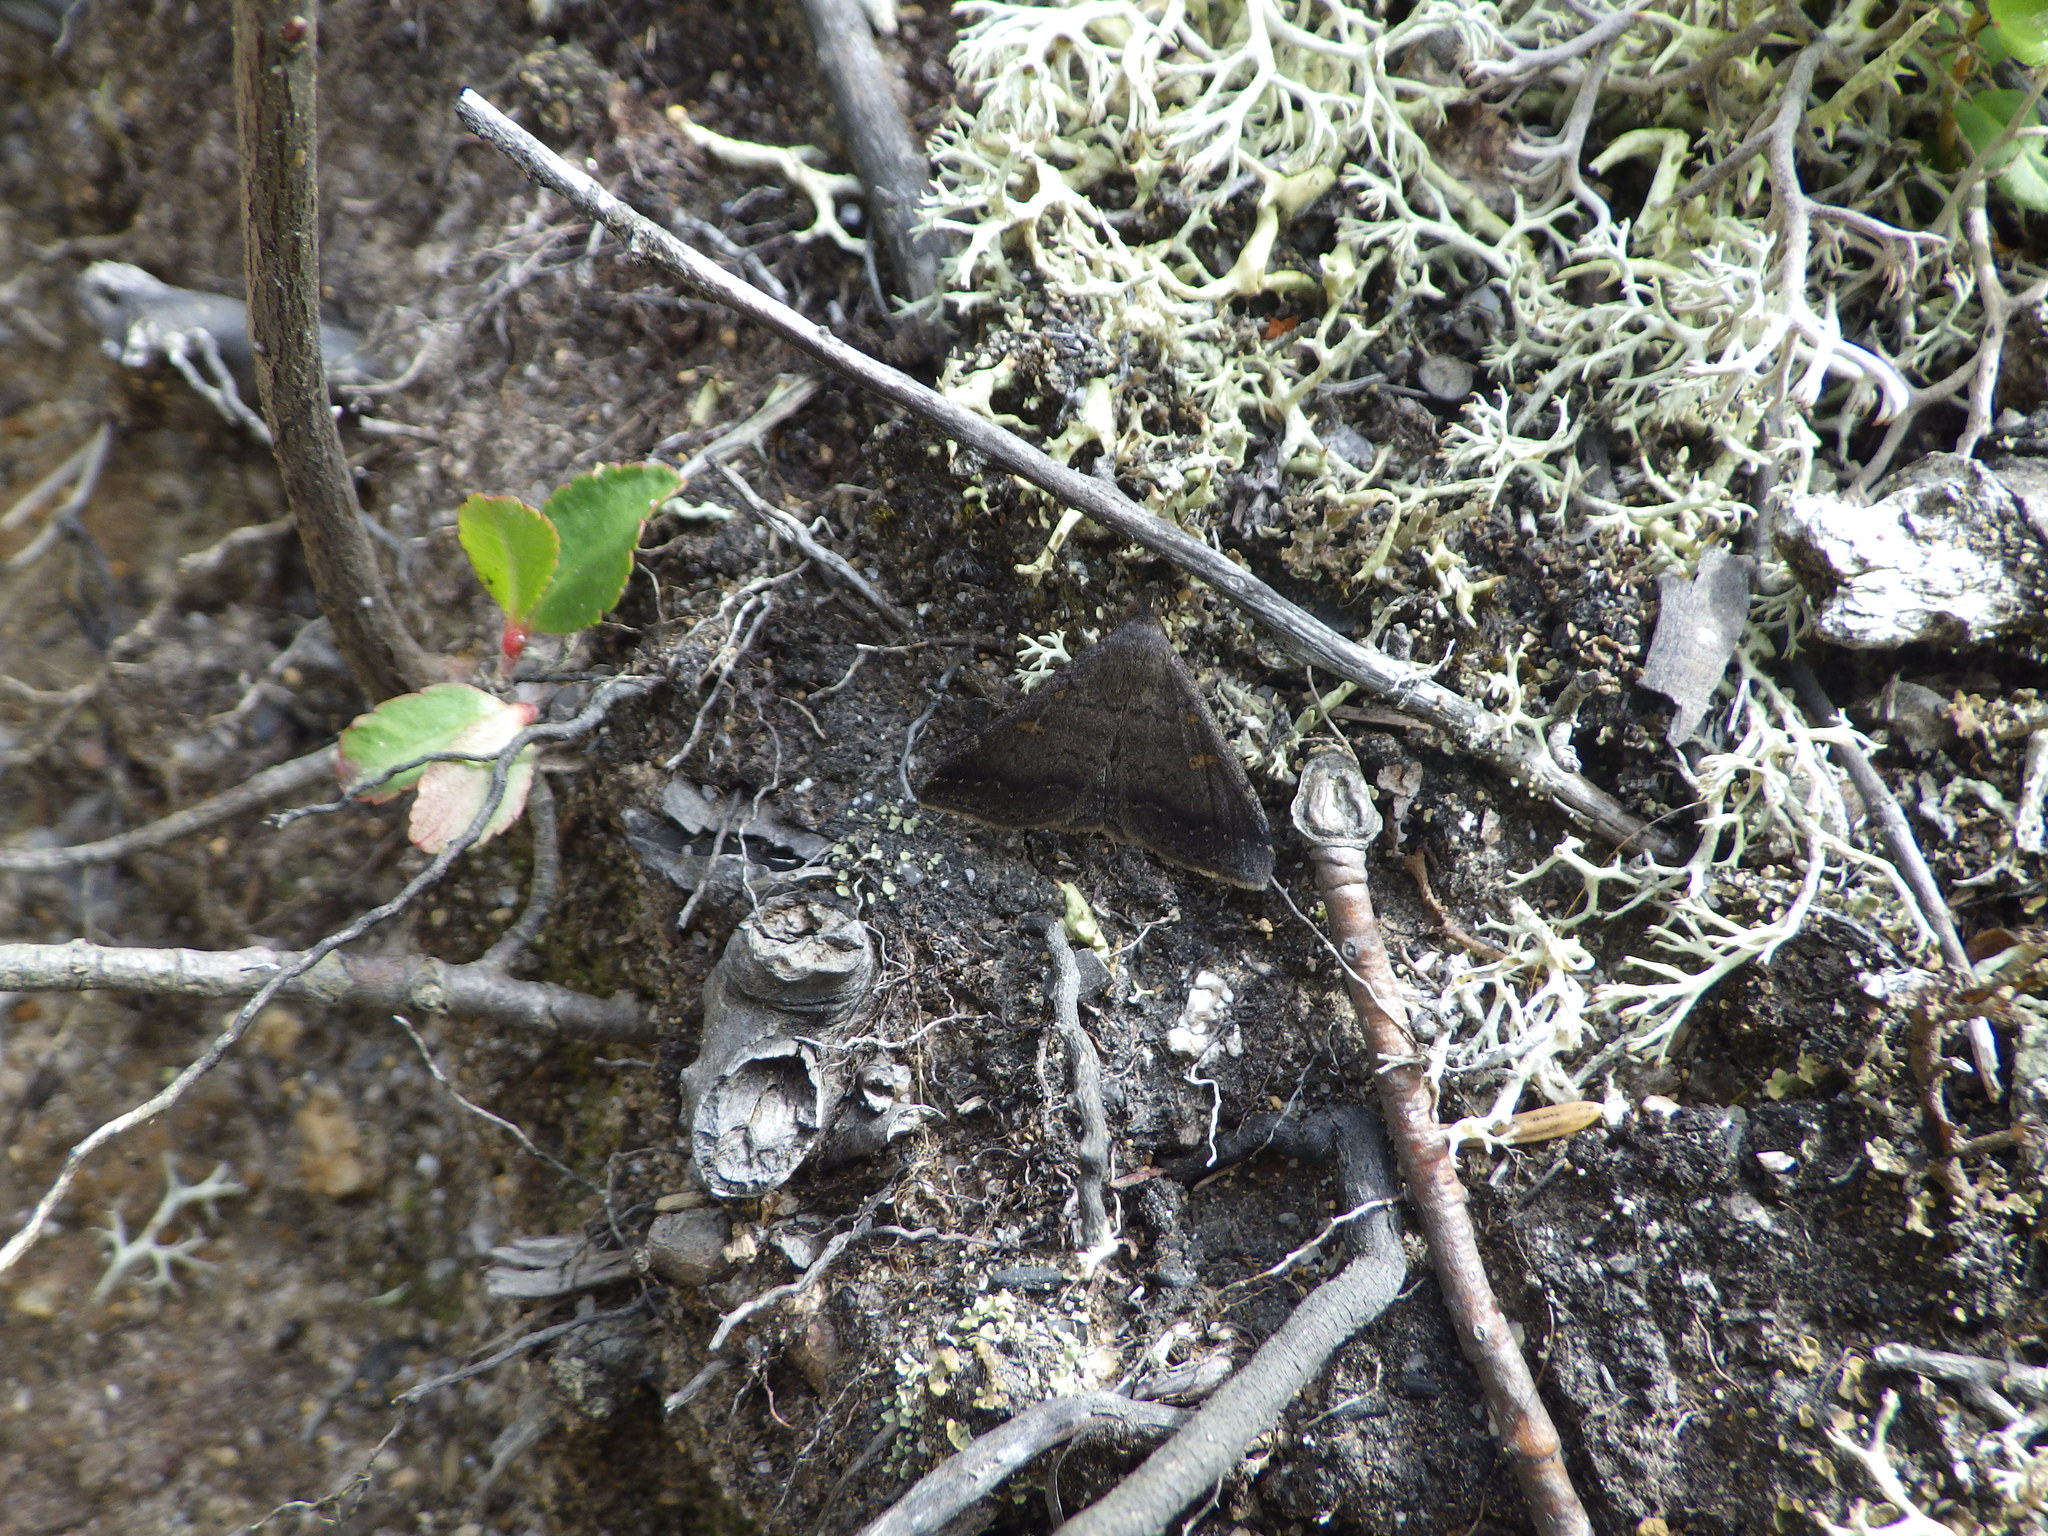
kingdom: Animalia
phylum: Arthropoda
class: Insecta
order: Lepidoptera
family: Erebidae
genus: Renia
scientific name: Renia sobrialis
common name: Sober renia moth
